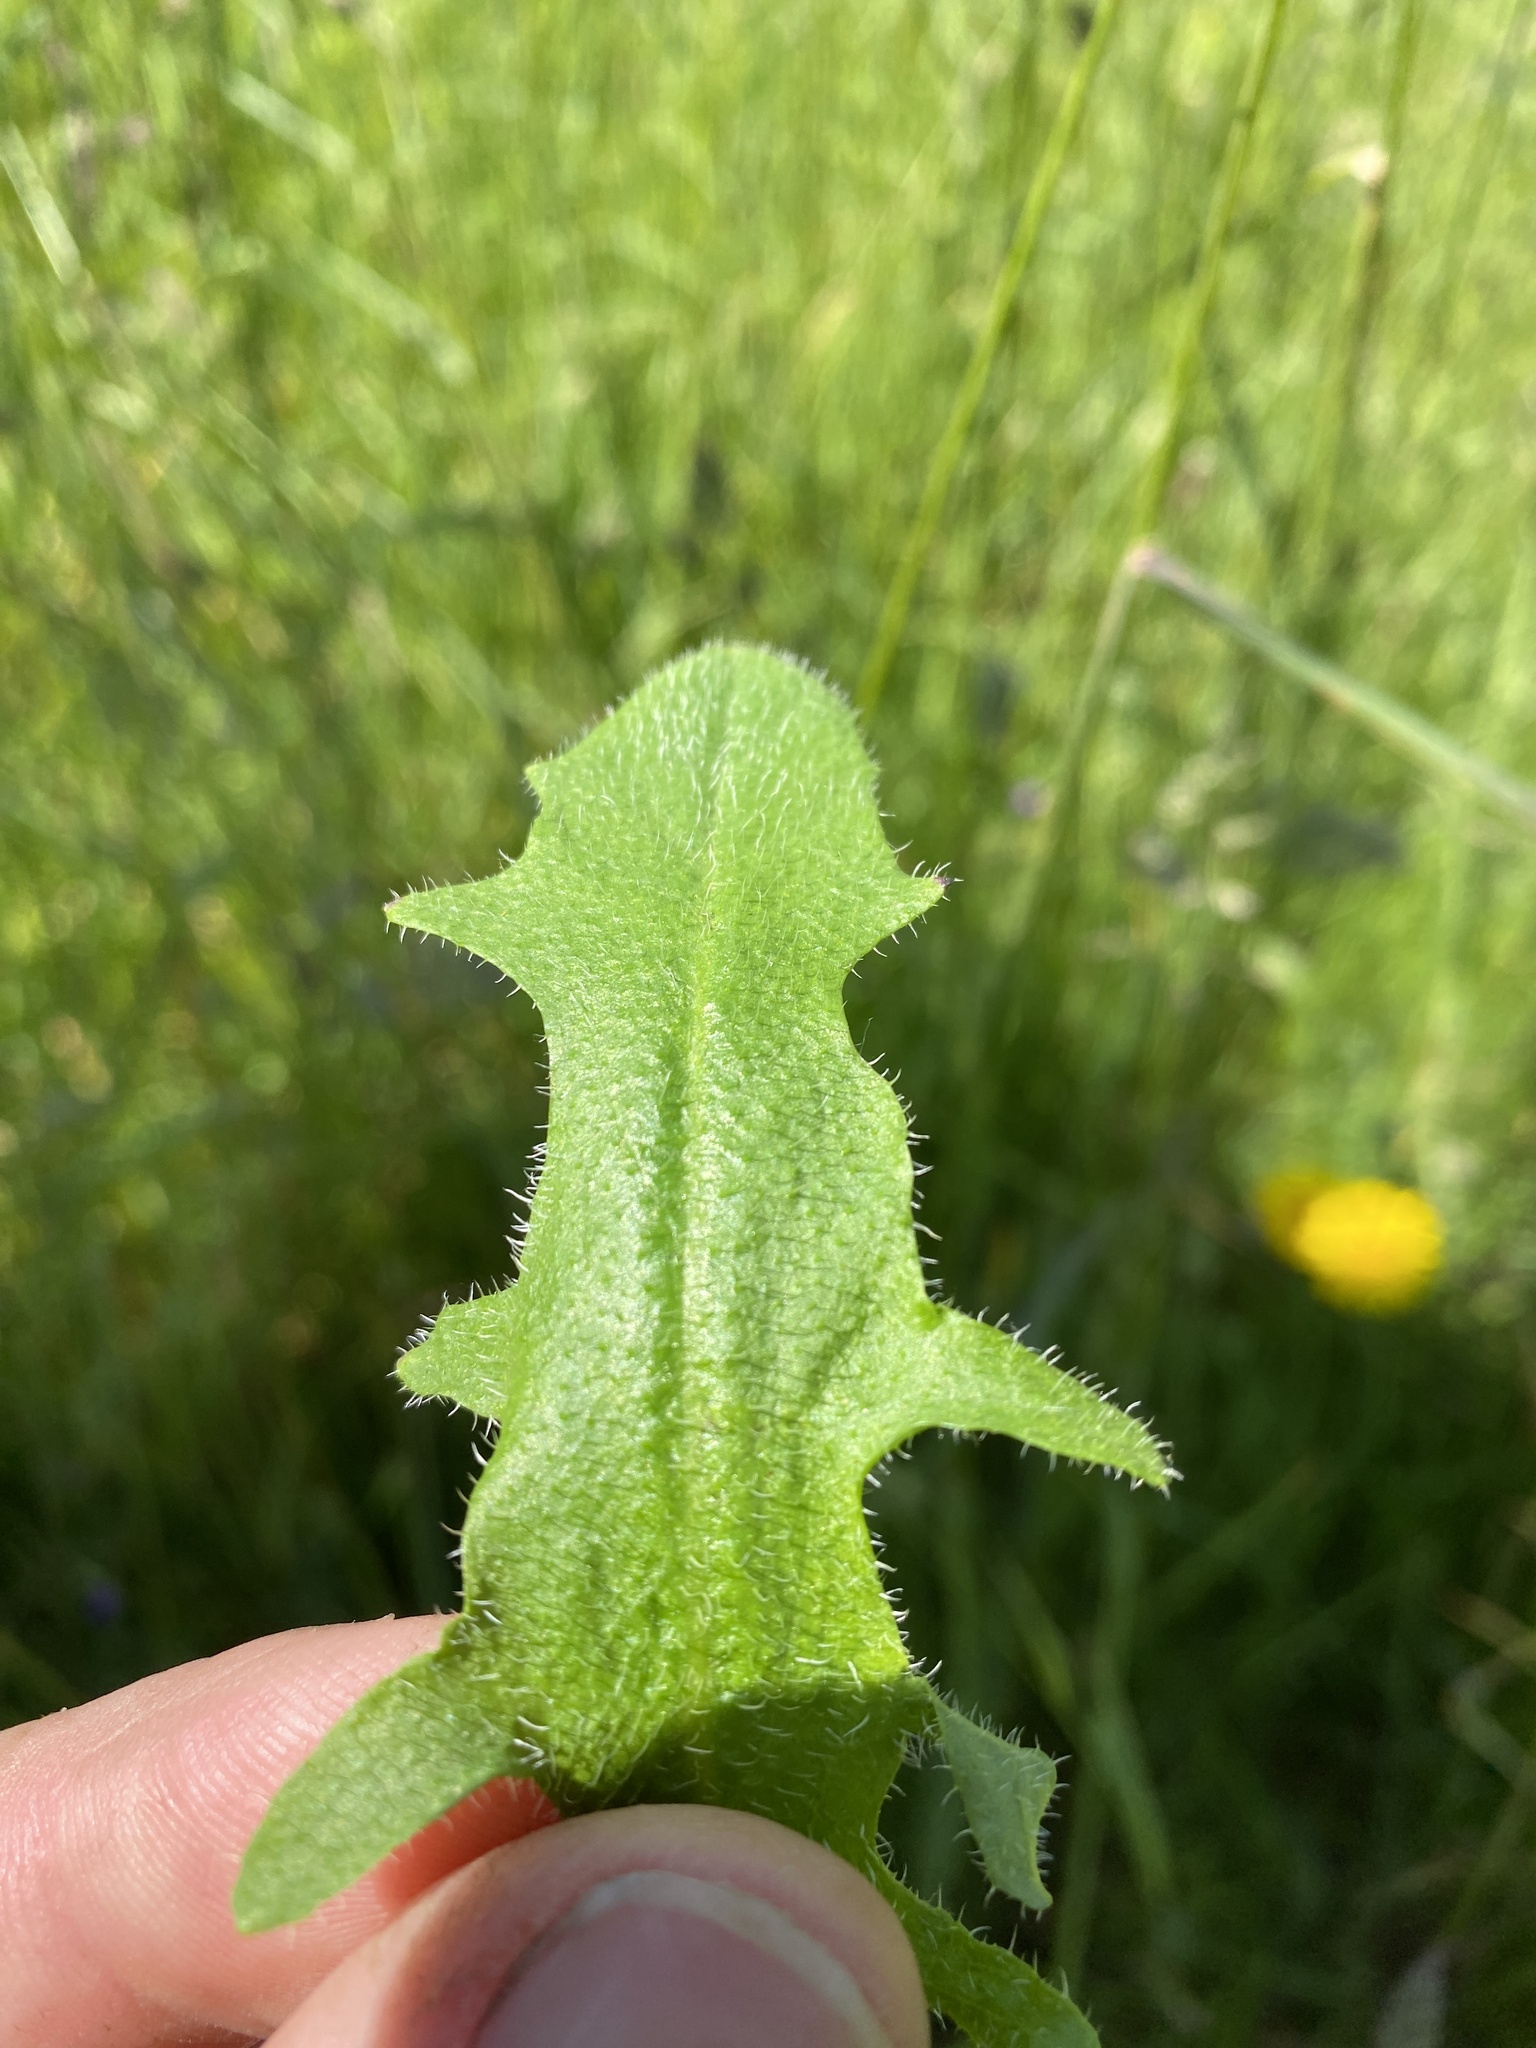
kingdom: Plantae
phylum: Tracheophyta
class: Magnoliopsida
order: Asterales
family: Asteraceae
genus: Hypochaeris
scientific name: Hypochaeris radicata
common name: Flatweed
